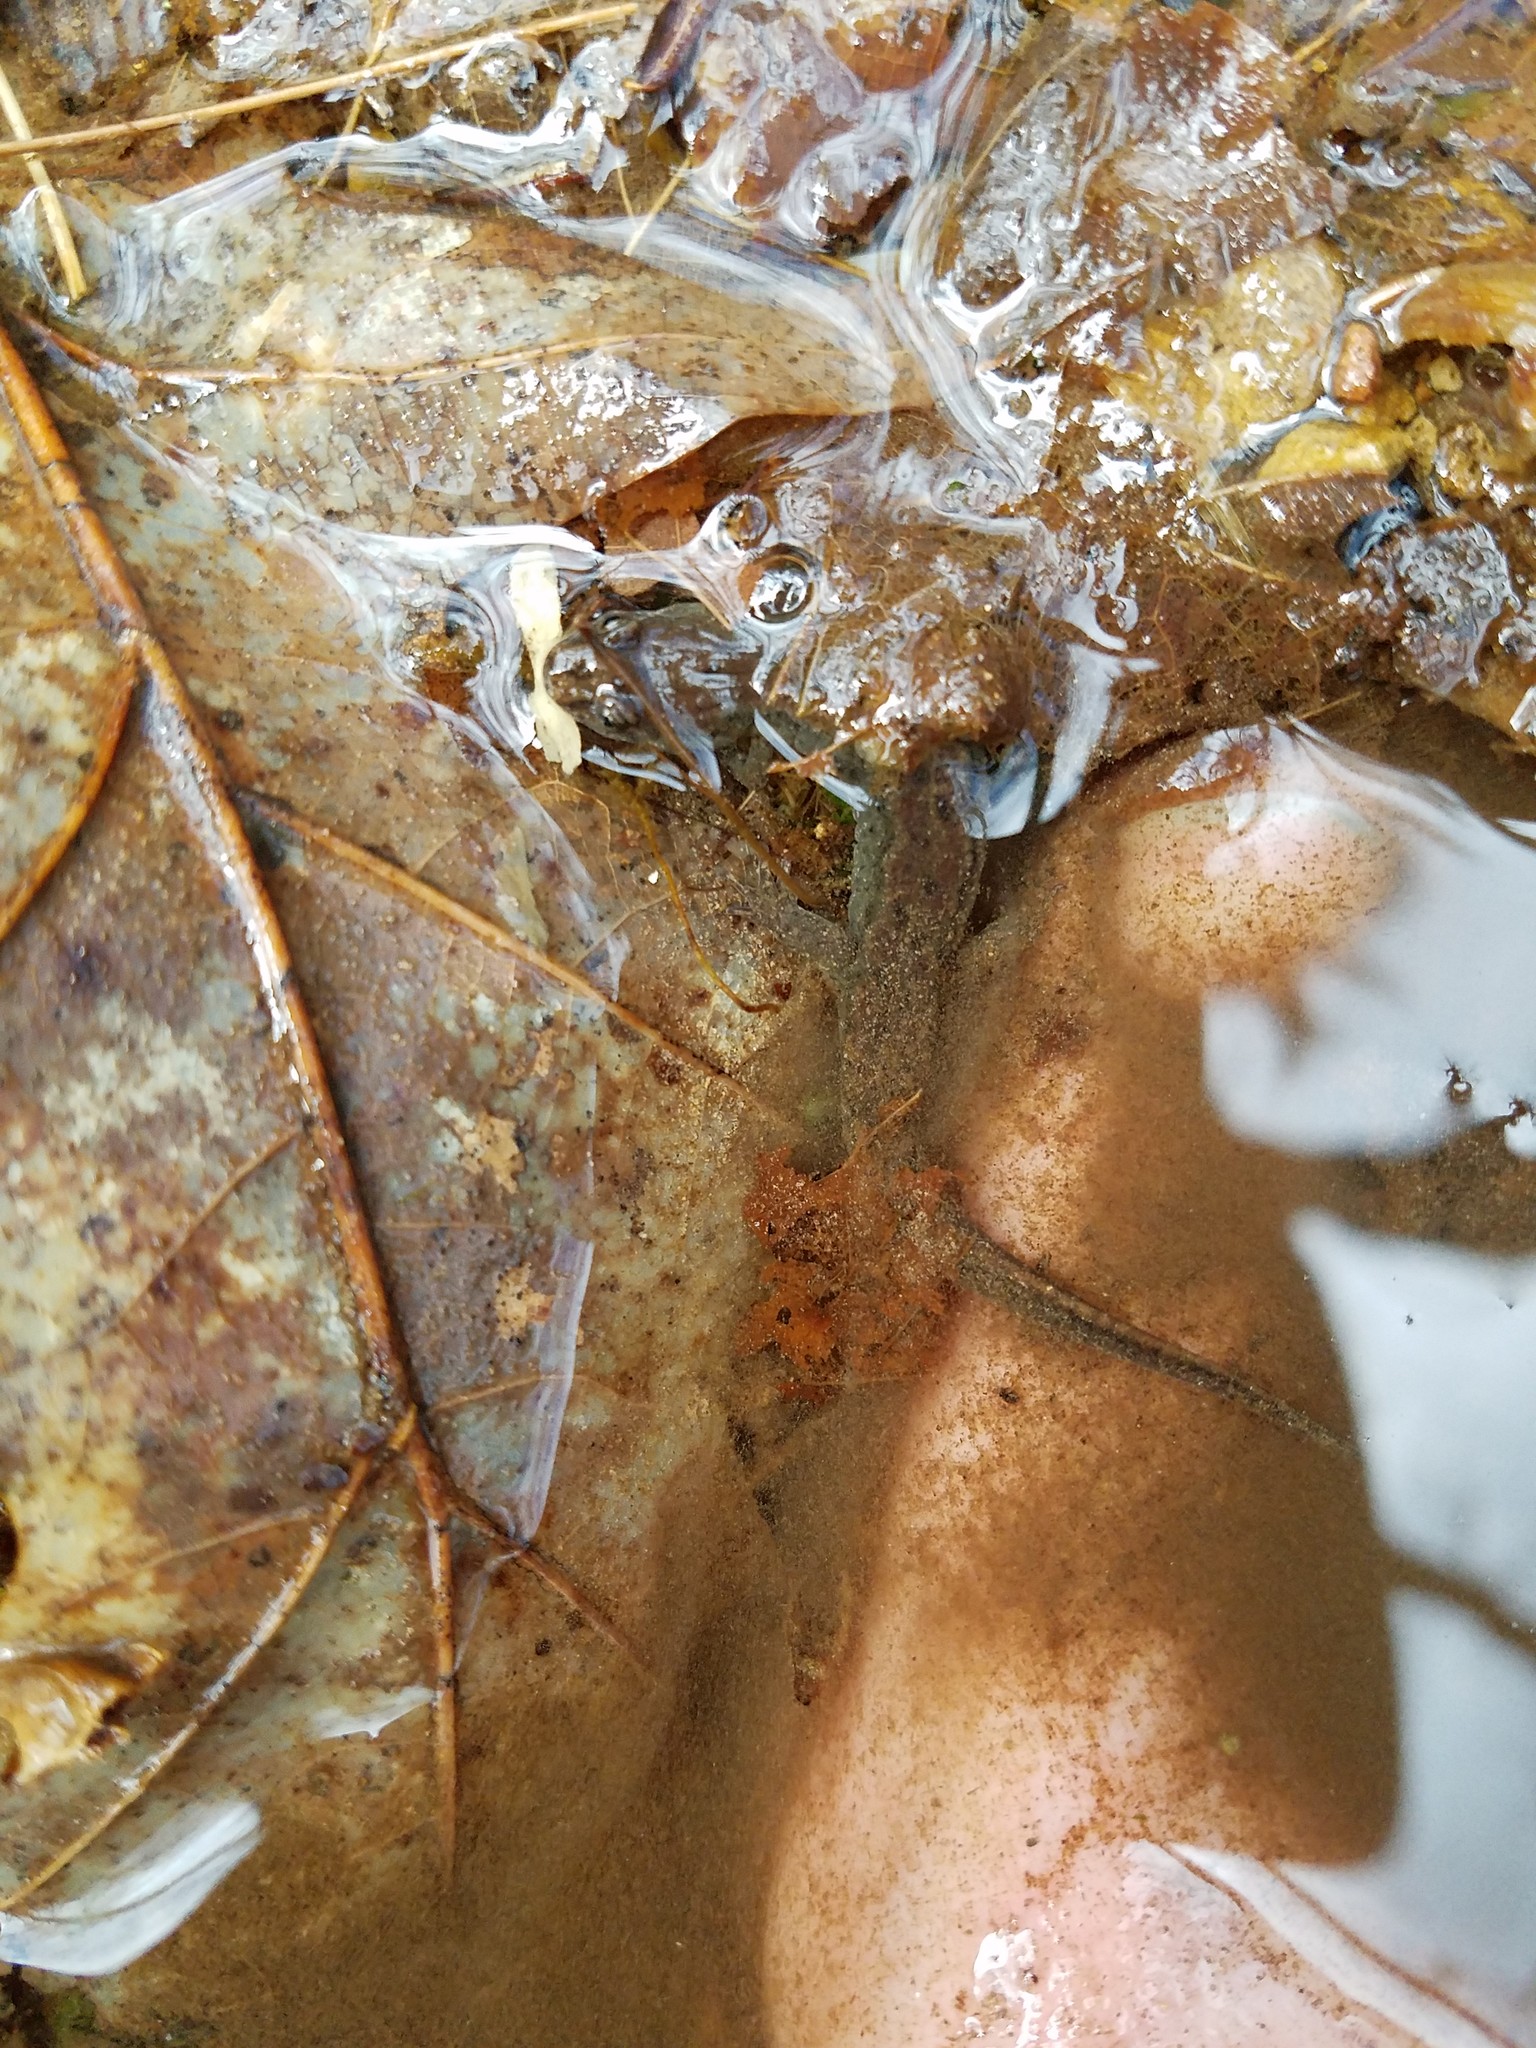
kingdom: Animalia
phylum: Chordata
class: Amphibia
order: Caudata
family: Plethodontidae
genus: Desmognathus
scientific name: Desmognathus fuscus
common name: Northern dusky salamander
